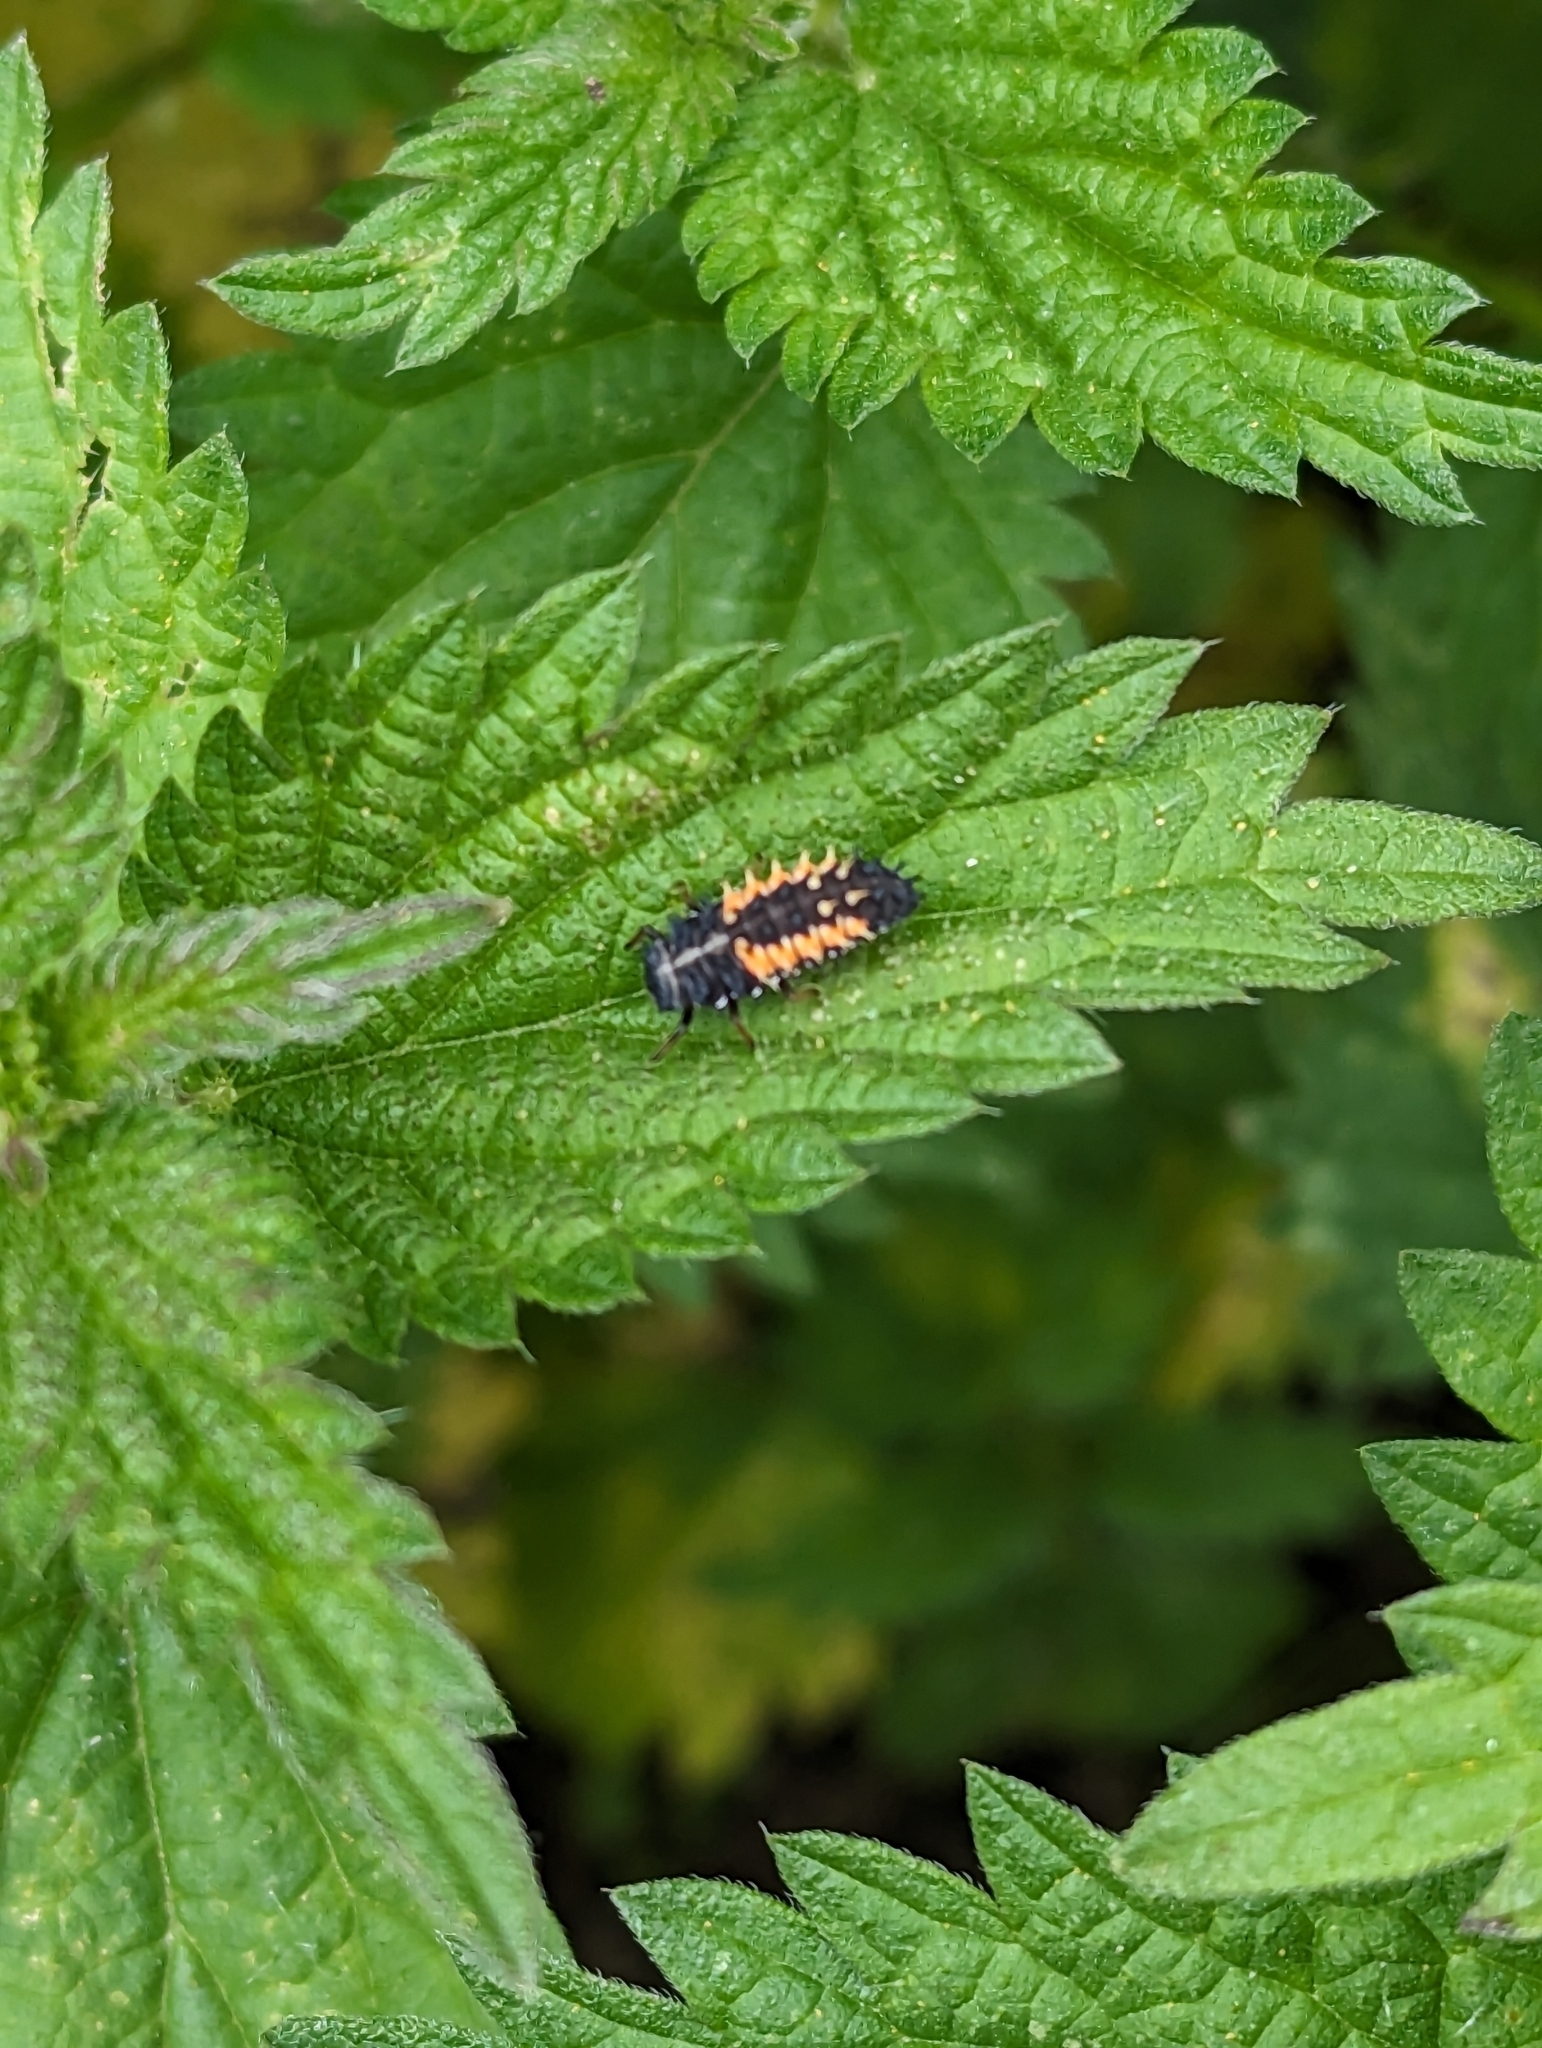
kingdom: Animalia
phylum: Arthropoda
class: Insecta
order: Coleoptera
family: Coccinellidae
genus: Harmonia
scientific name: Harmonia axyridis
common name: Harlequin ladybird
